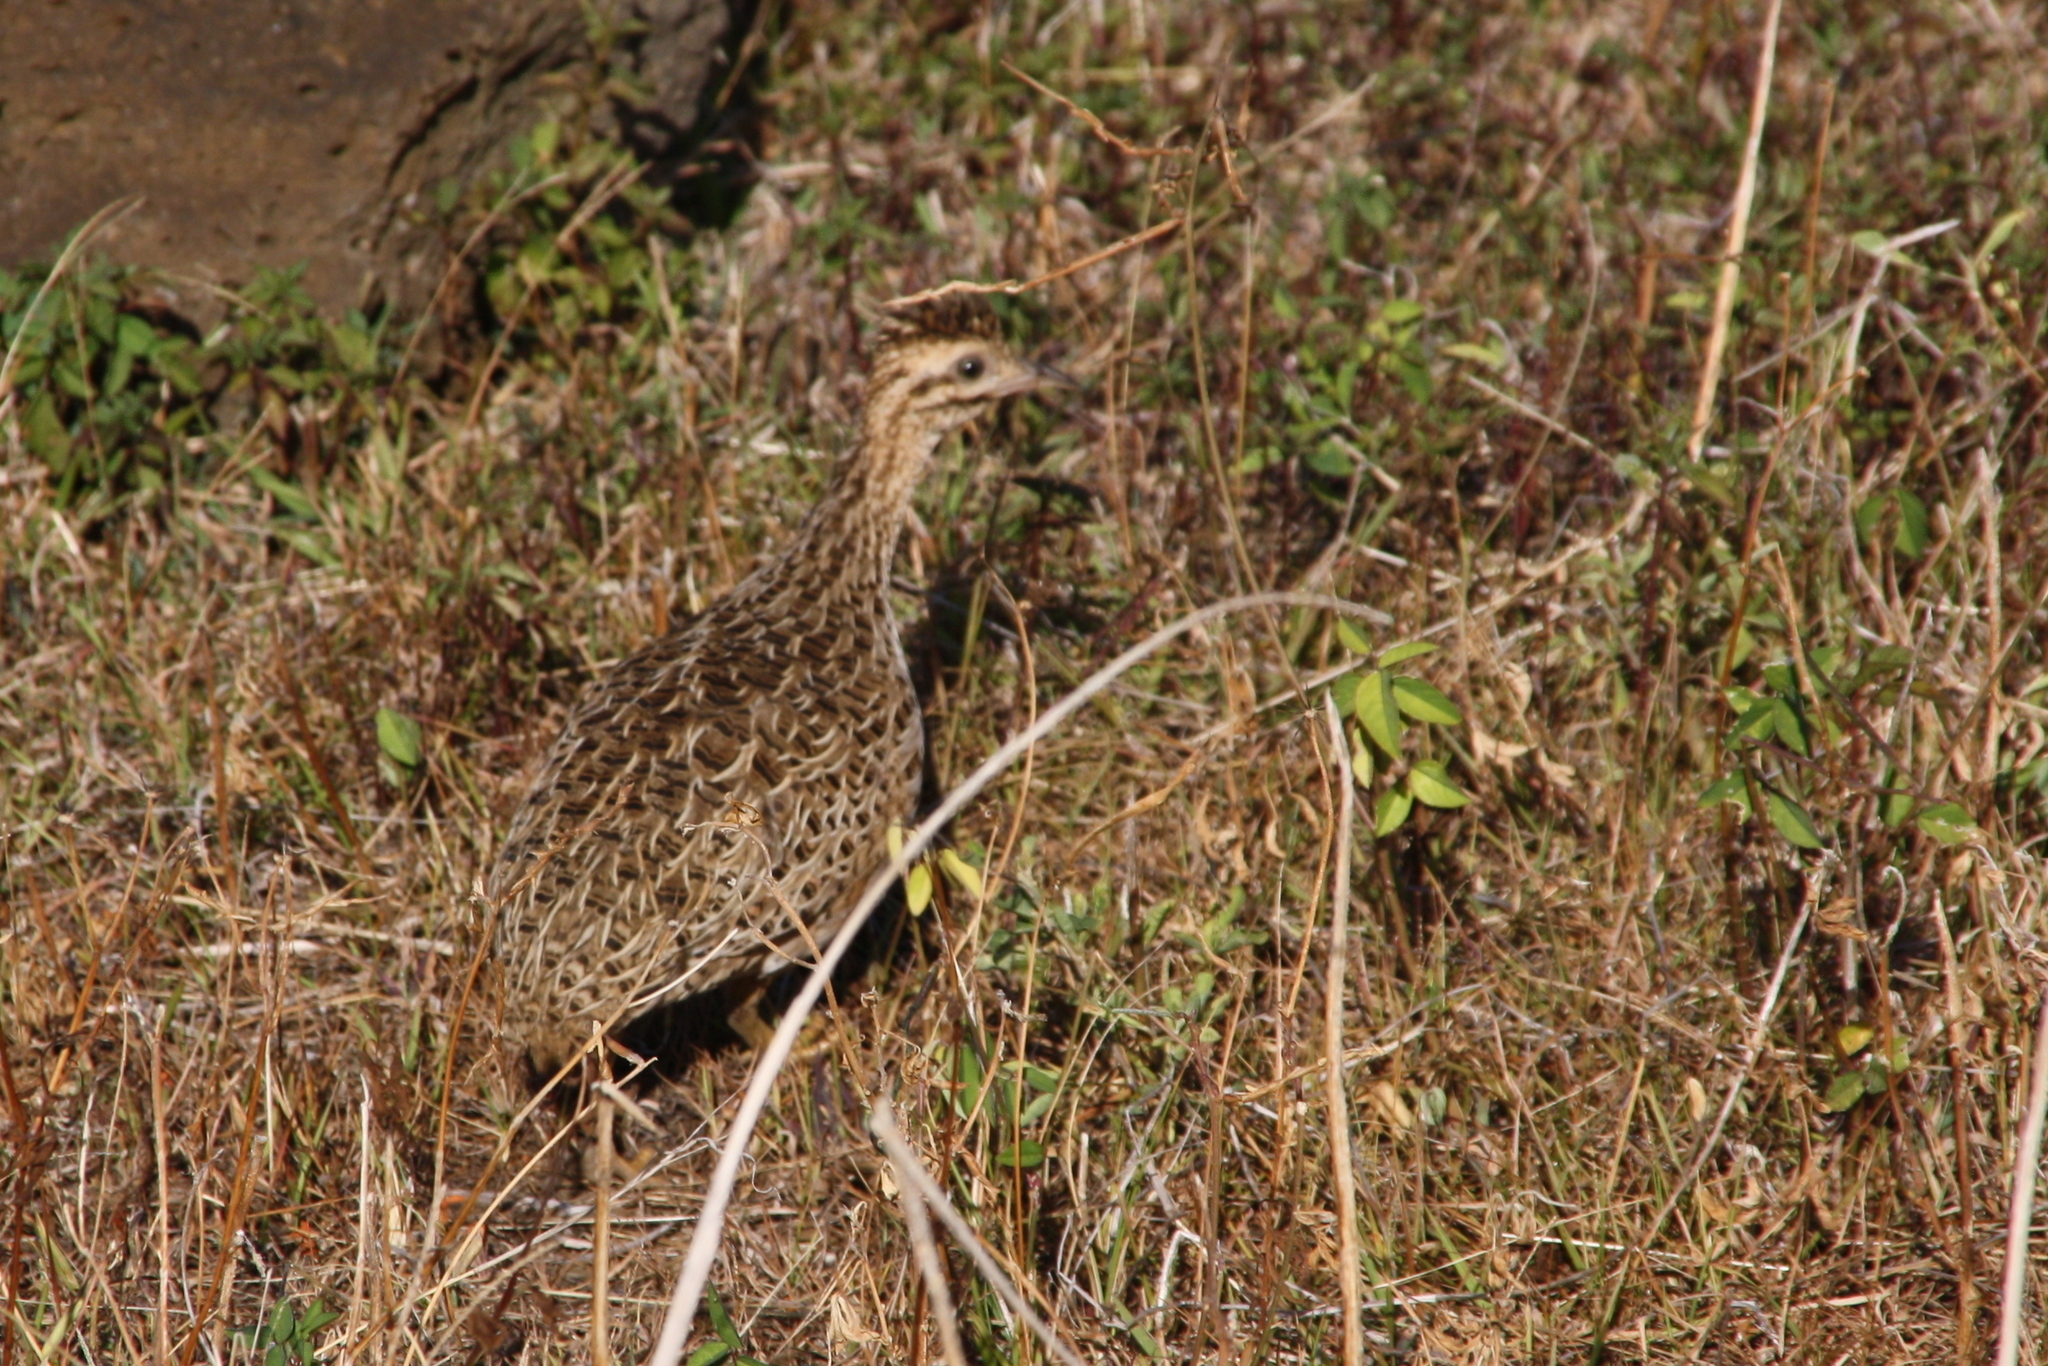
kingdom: Animalia
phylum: Chordata
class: Aves
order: Tinamiformes
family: Tinamidae
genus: Nothoprocta
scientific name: Nothoprocta perdicaria
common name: Chilean tinamou
